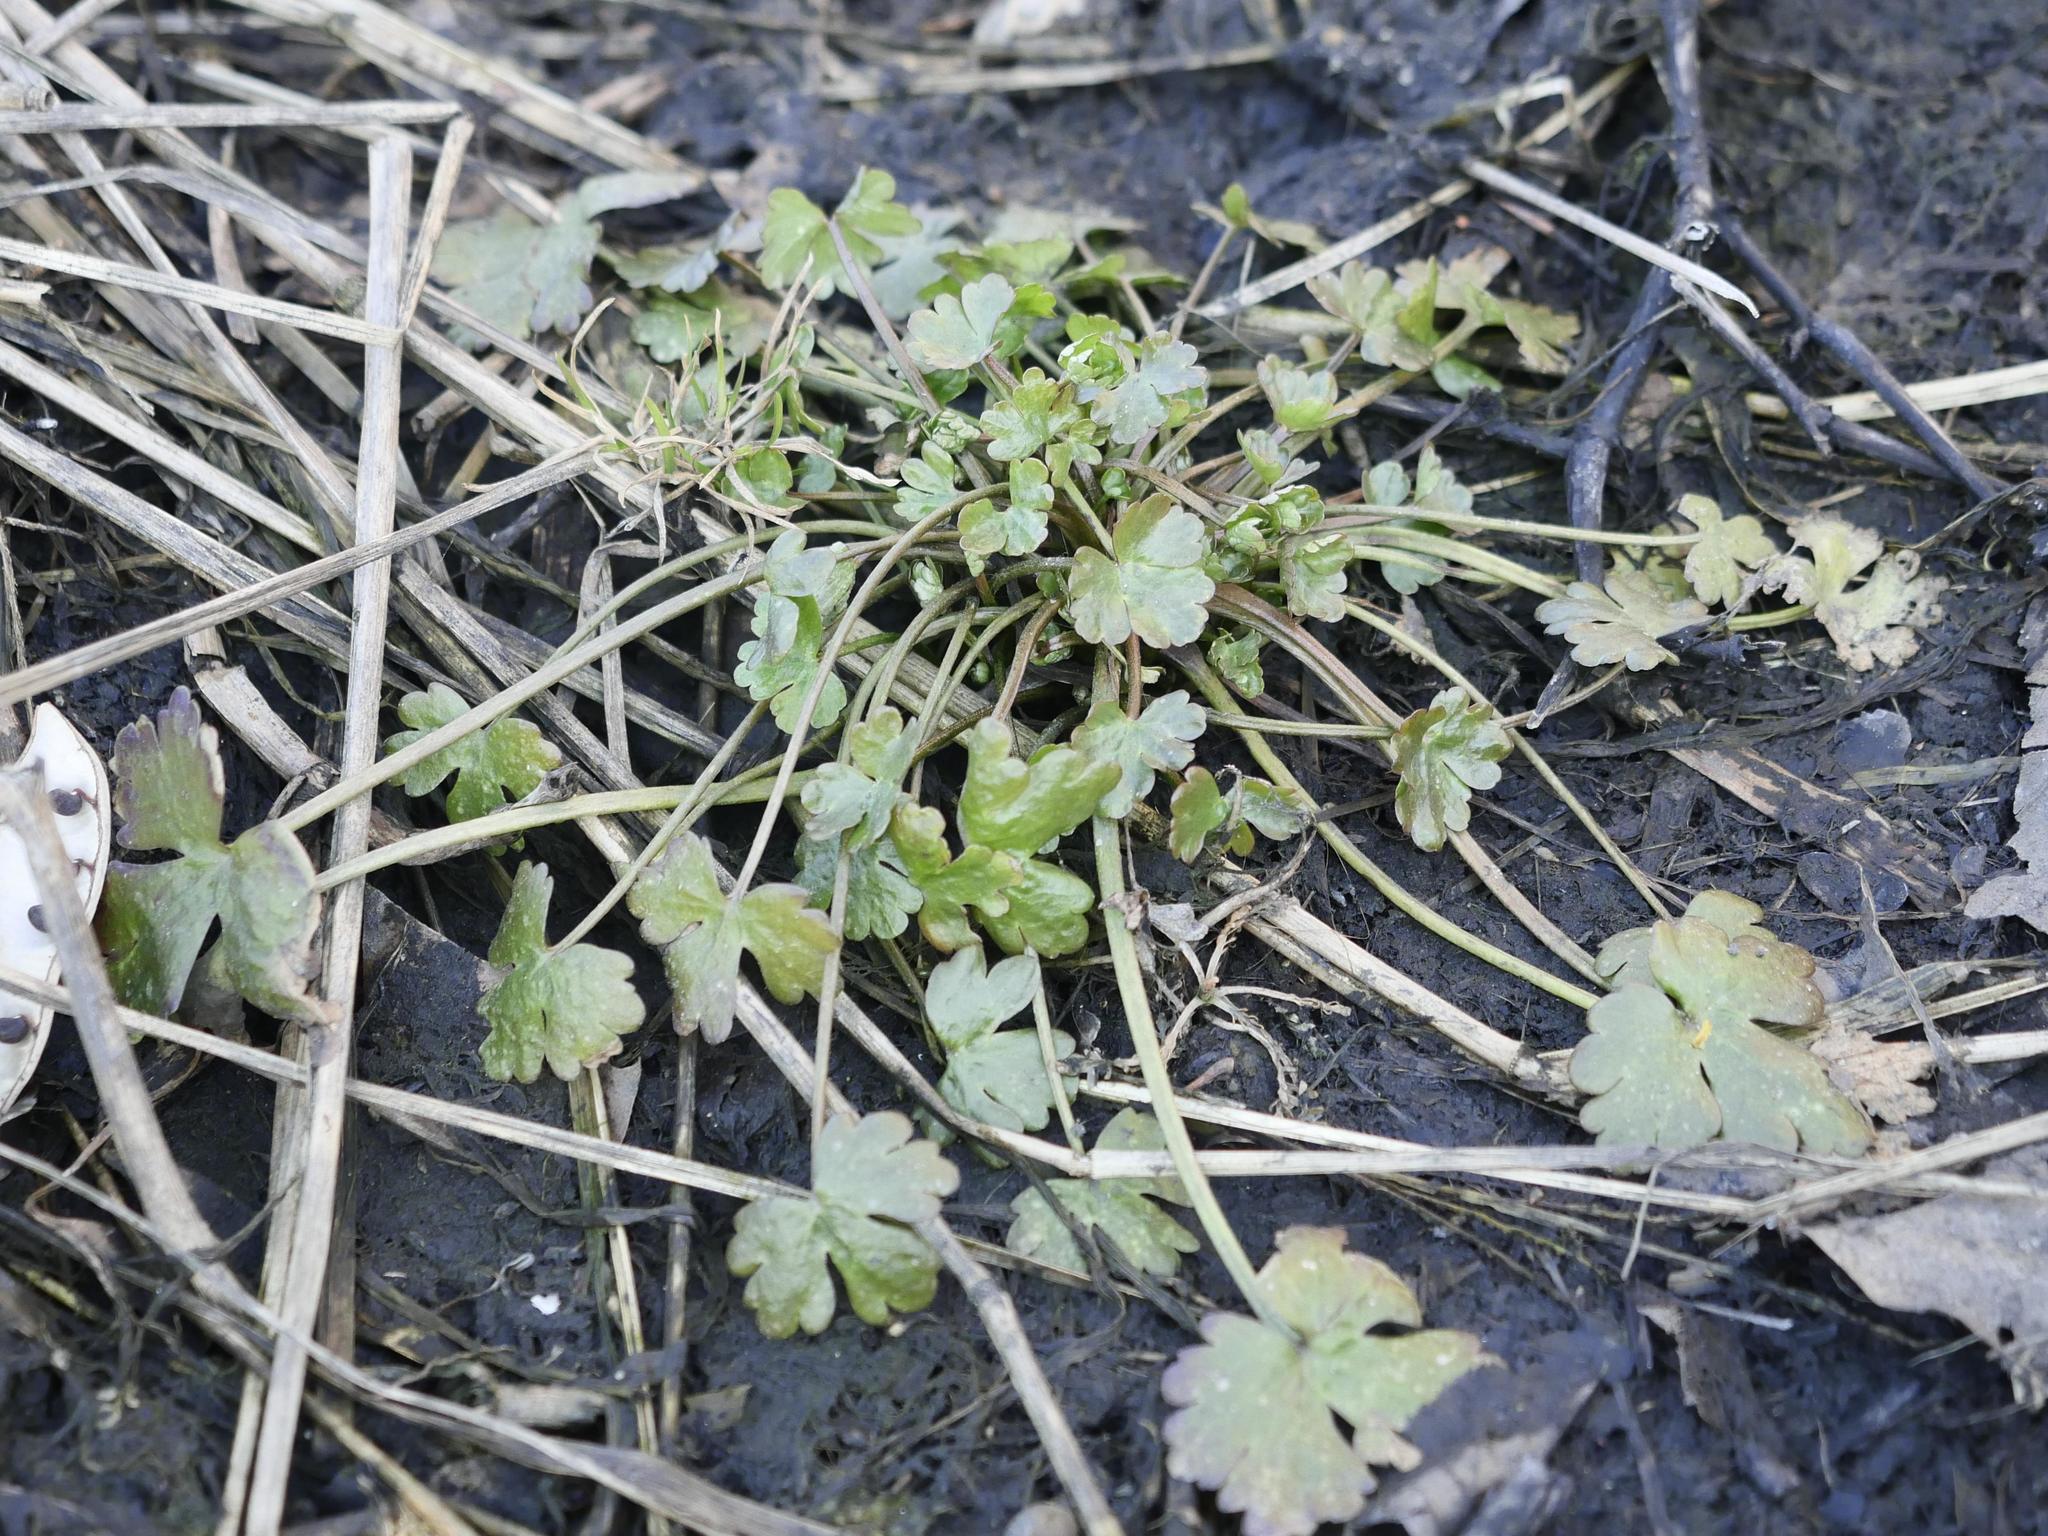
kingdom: Plantae
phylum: Tracheophyta
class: Magnoliopsida
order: Ranunculales
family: Ranunculaceae
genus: Ranunculus
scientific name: Ranunculus sceleratus
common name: Celery-leaved buttercup
